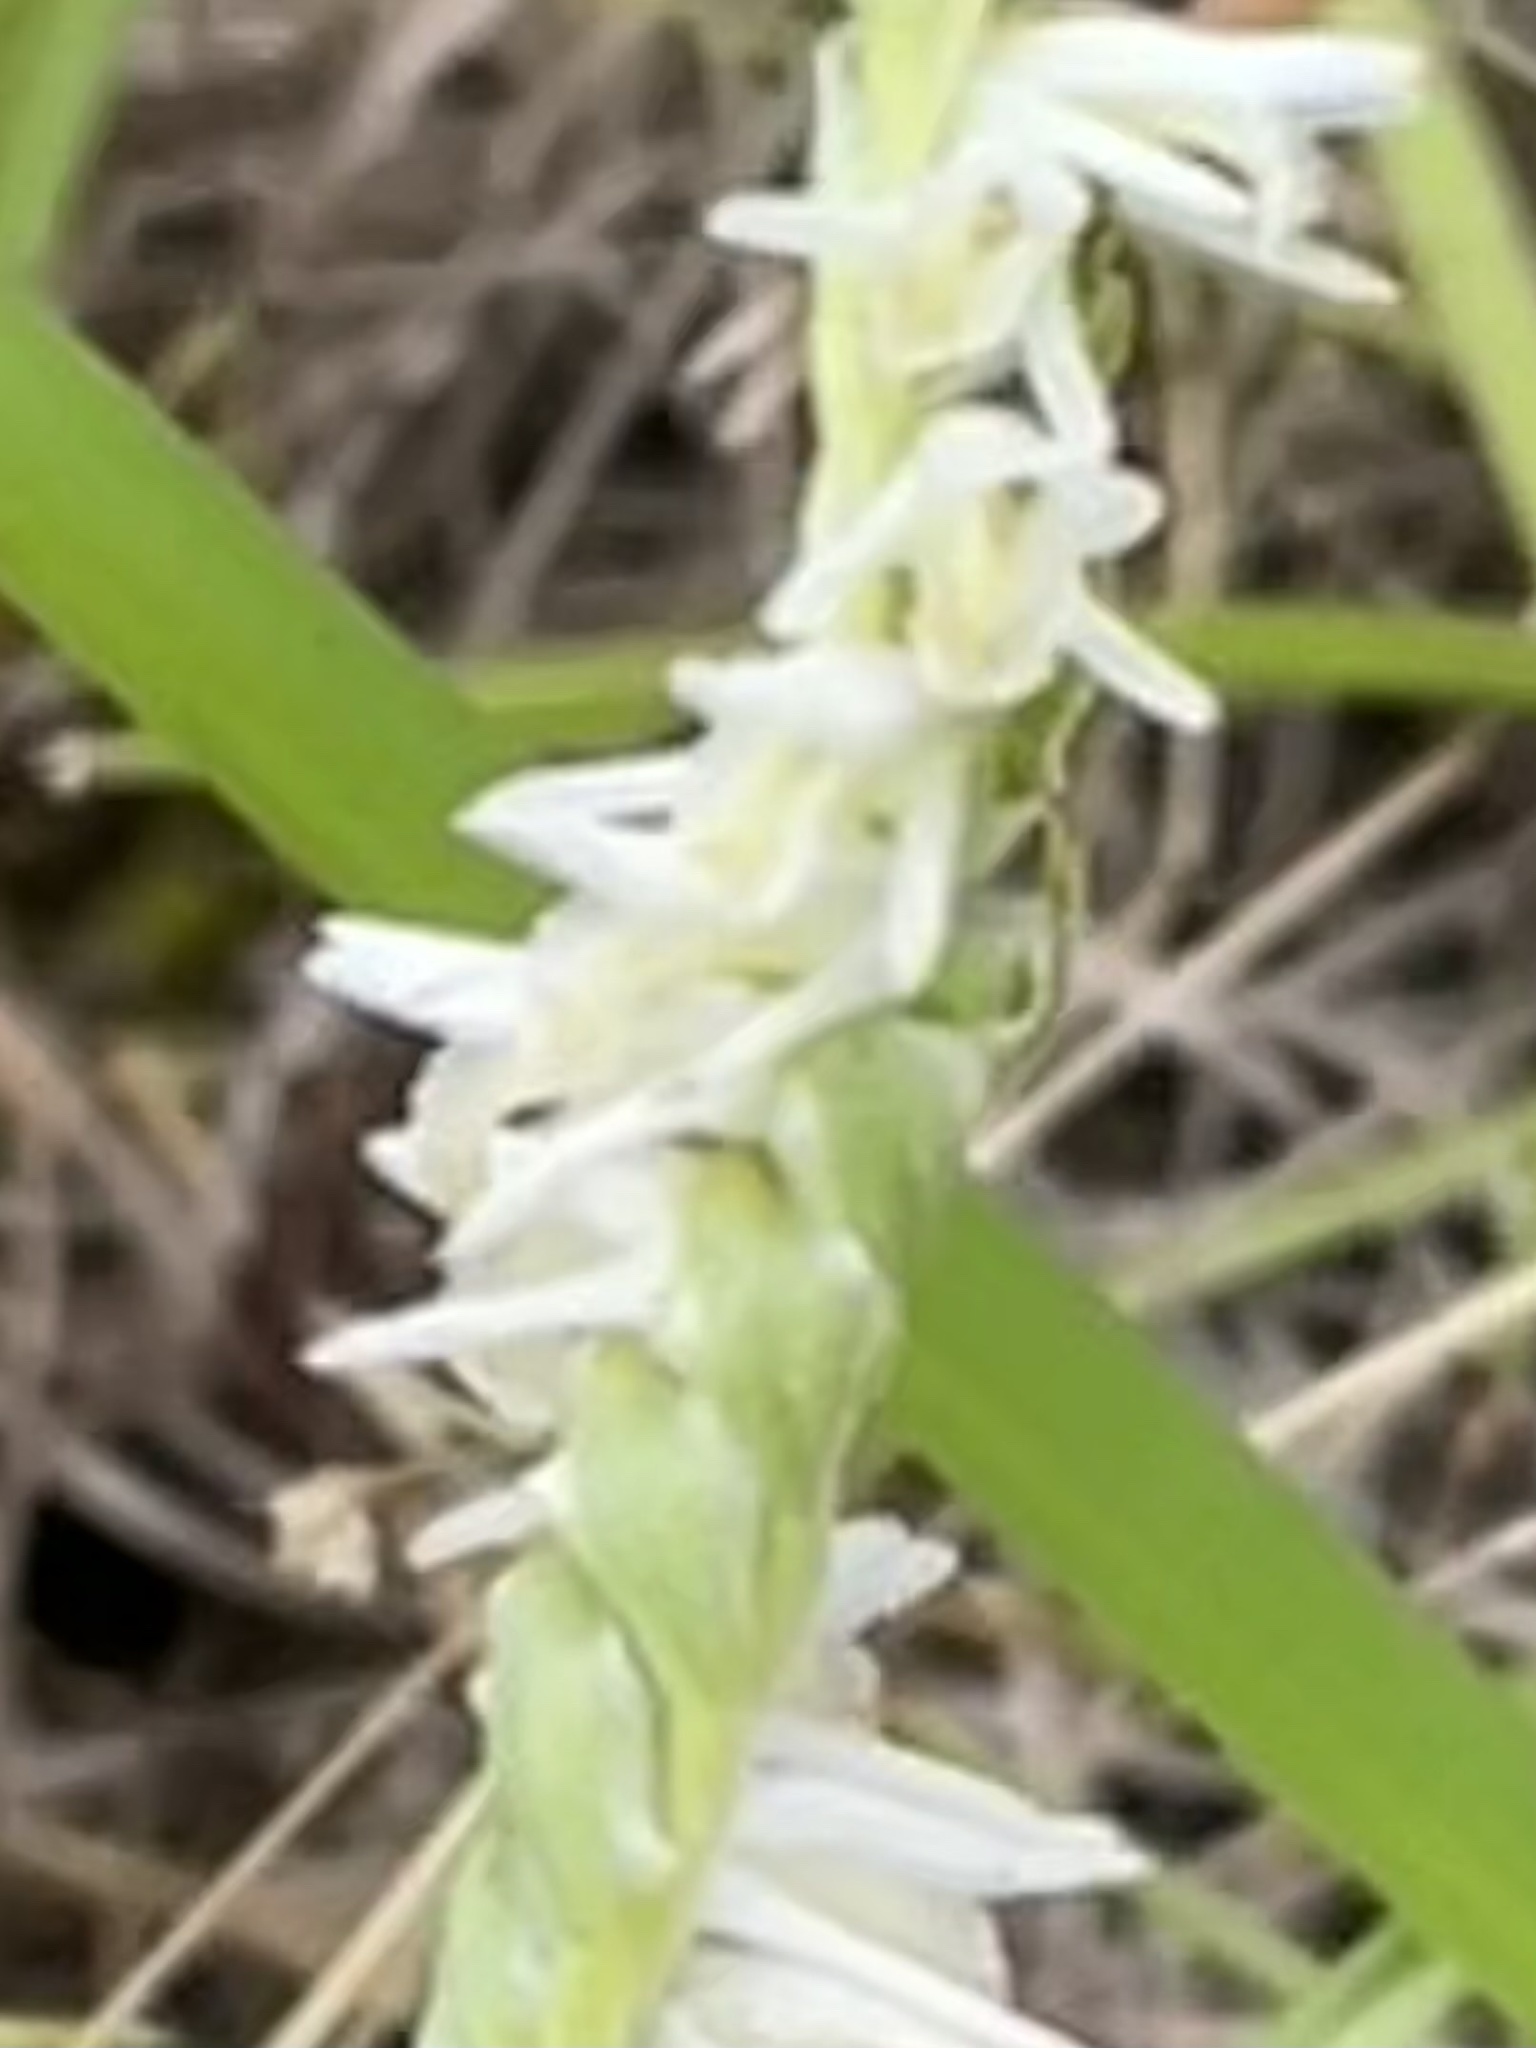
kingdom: Plantae
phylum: Tracheophyta
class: Liliopsida
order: Asparagales
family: Orchidaceae
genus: Spiranthes
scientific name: Spiranthes vernalis
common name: Spring ladies'-tresses
